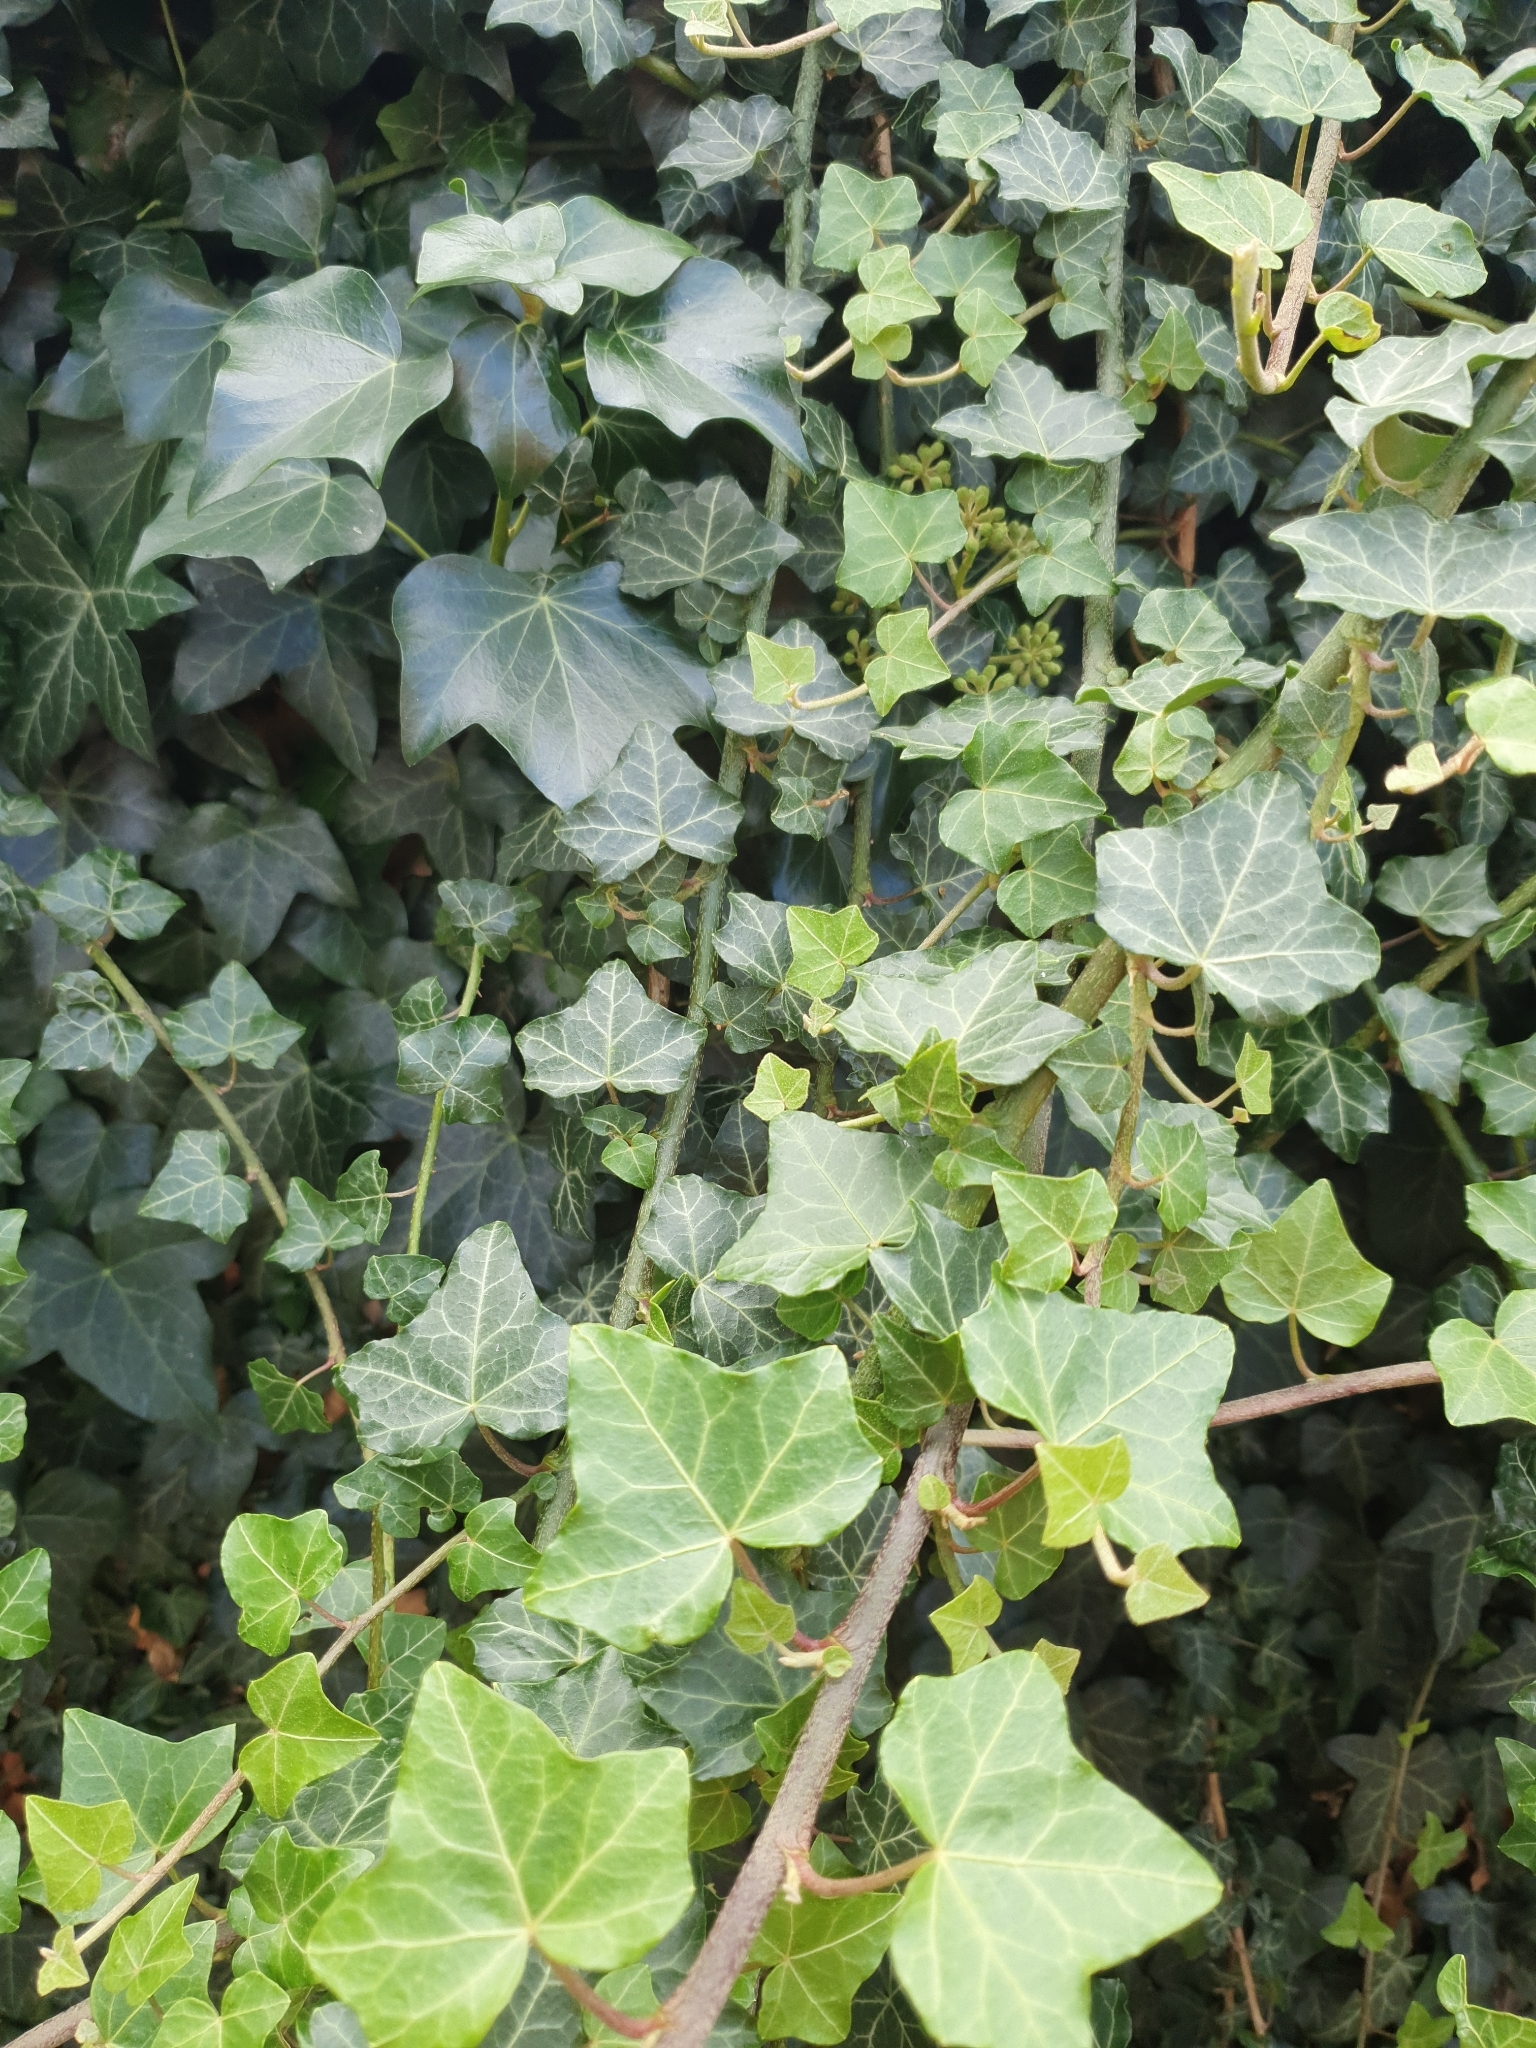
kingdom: Plantae
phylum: Tracheophyta
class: Magnoliopsida
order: Apiales
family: Araliaceae
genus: Hedera
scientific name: Hedera helix
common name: Ivy
